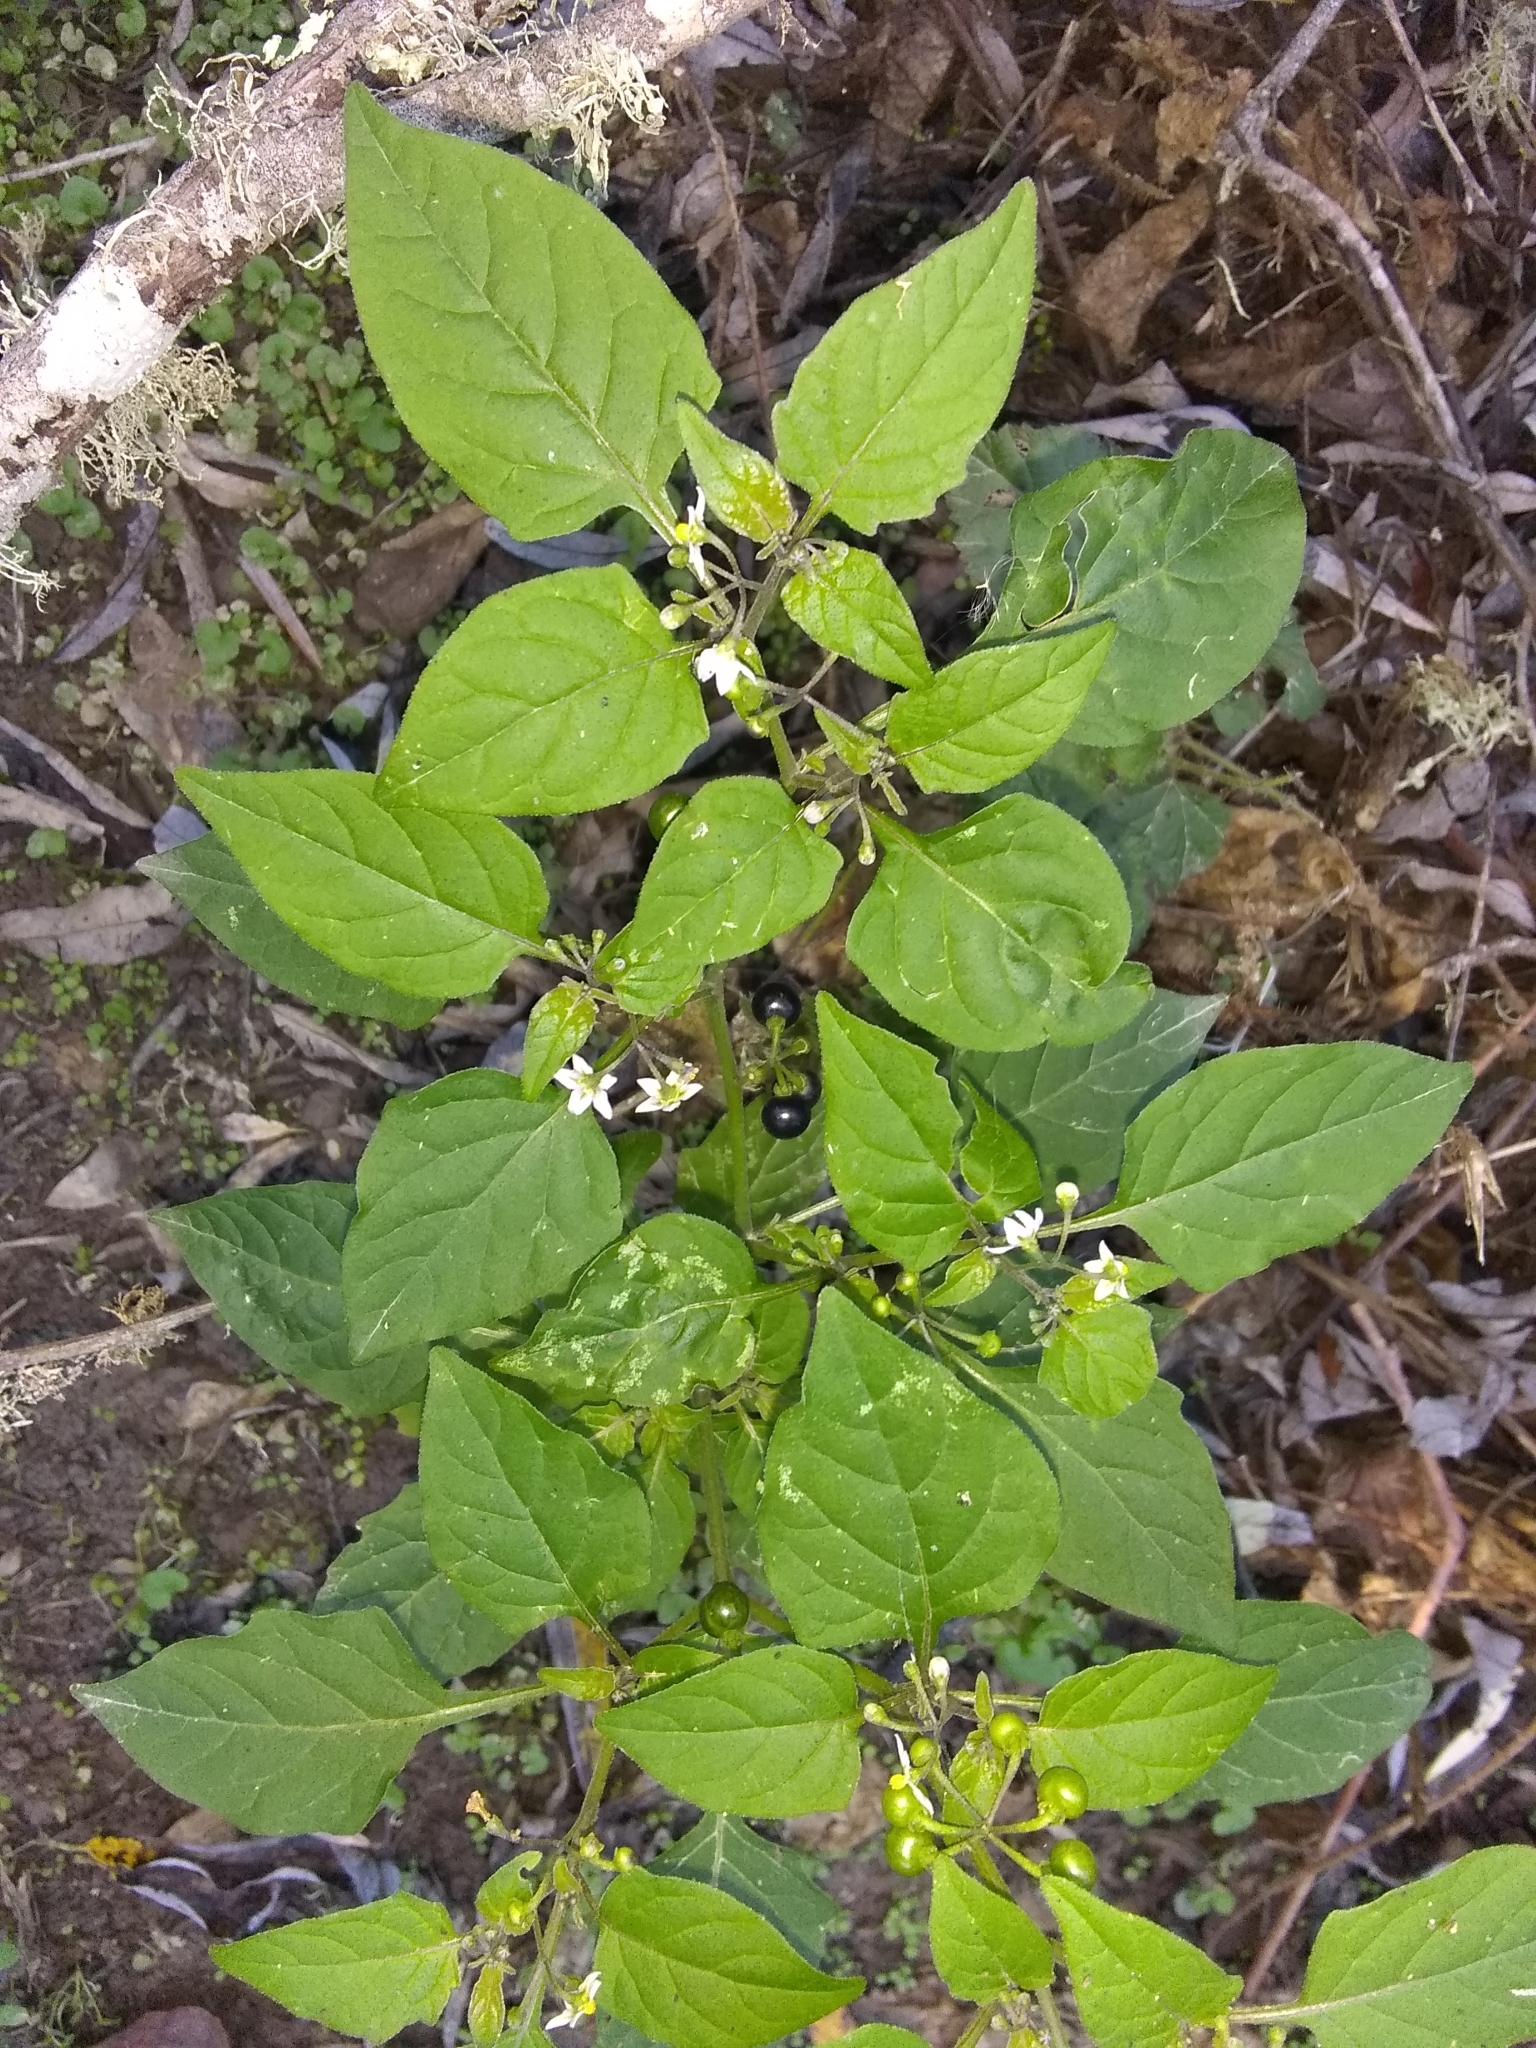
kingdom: Plantae
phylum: Tracheophyta
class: Magnoliopsida
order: Solanales
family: Solanaceae
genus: Solanum
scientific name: Solanum americanum
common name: American black nightshade
